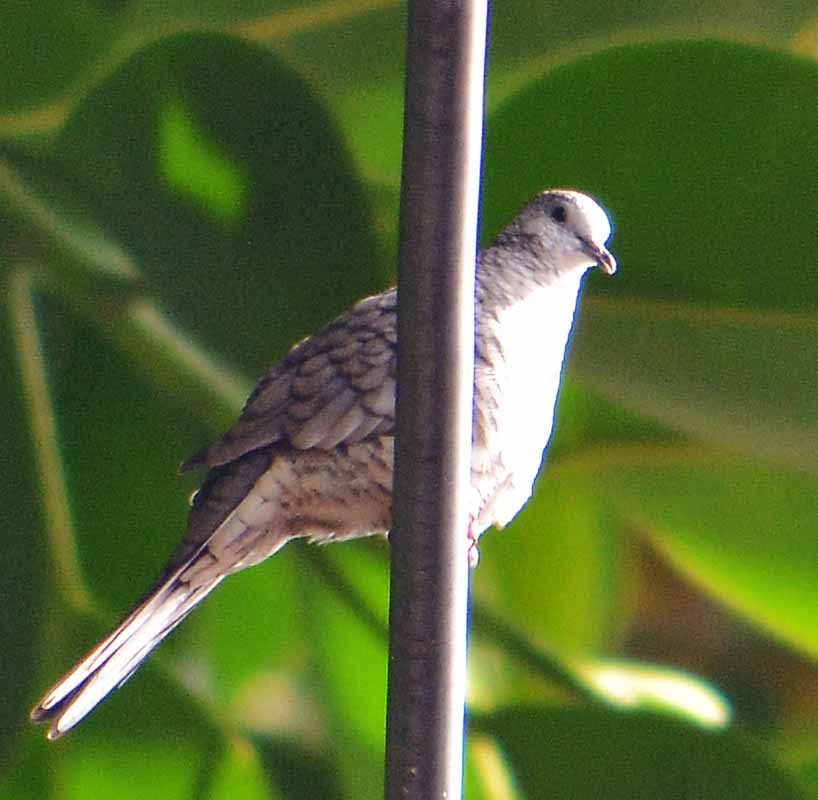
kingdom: Animalia
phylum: Chordata
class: Aves
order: Columbiformes
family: Columbidae
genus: Columbina
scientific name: Columbina inca
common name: Inca dove
